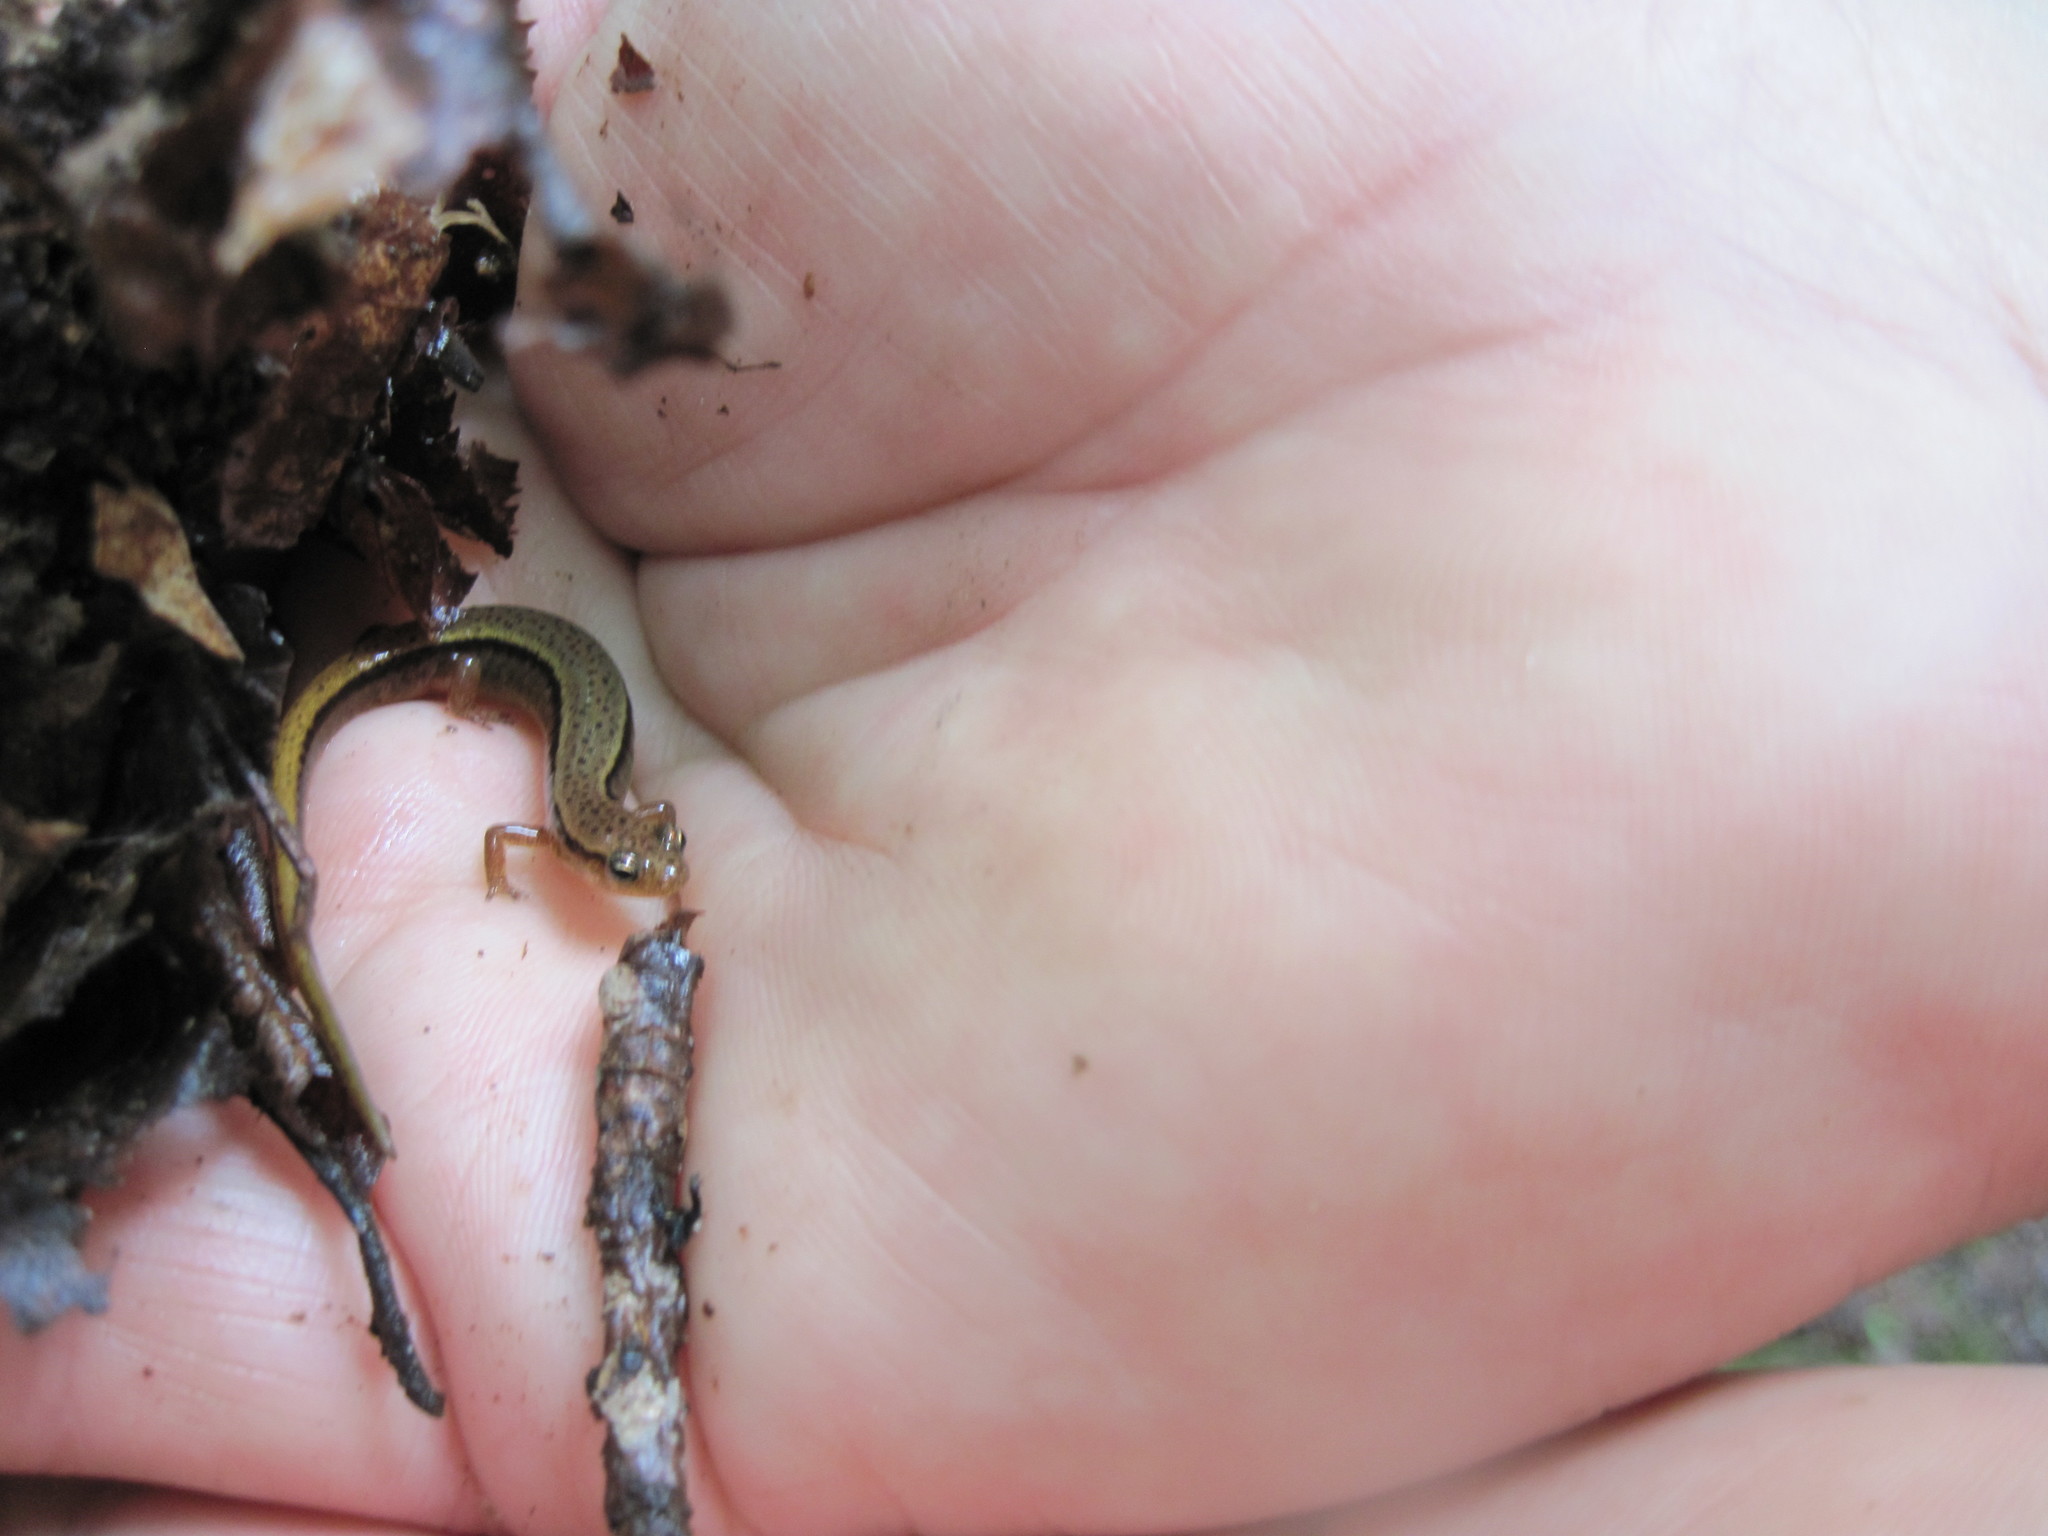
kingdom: Animalia
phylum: Chordata
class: Amphibia
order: Caudata
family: Plethodontidae
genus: Eurycea
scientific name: Eurycea wilderae
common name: Blue ridge two-lined salamander
